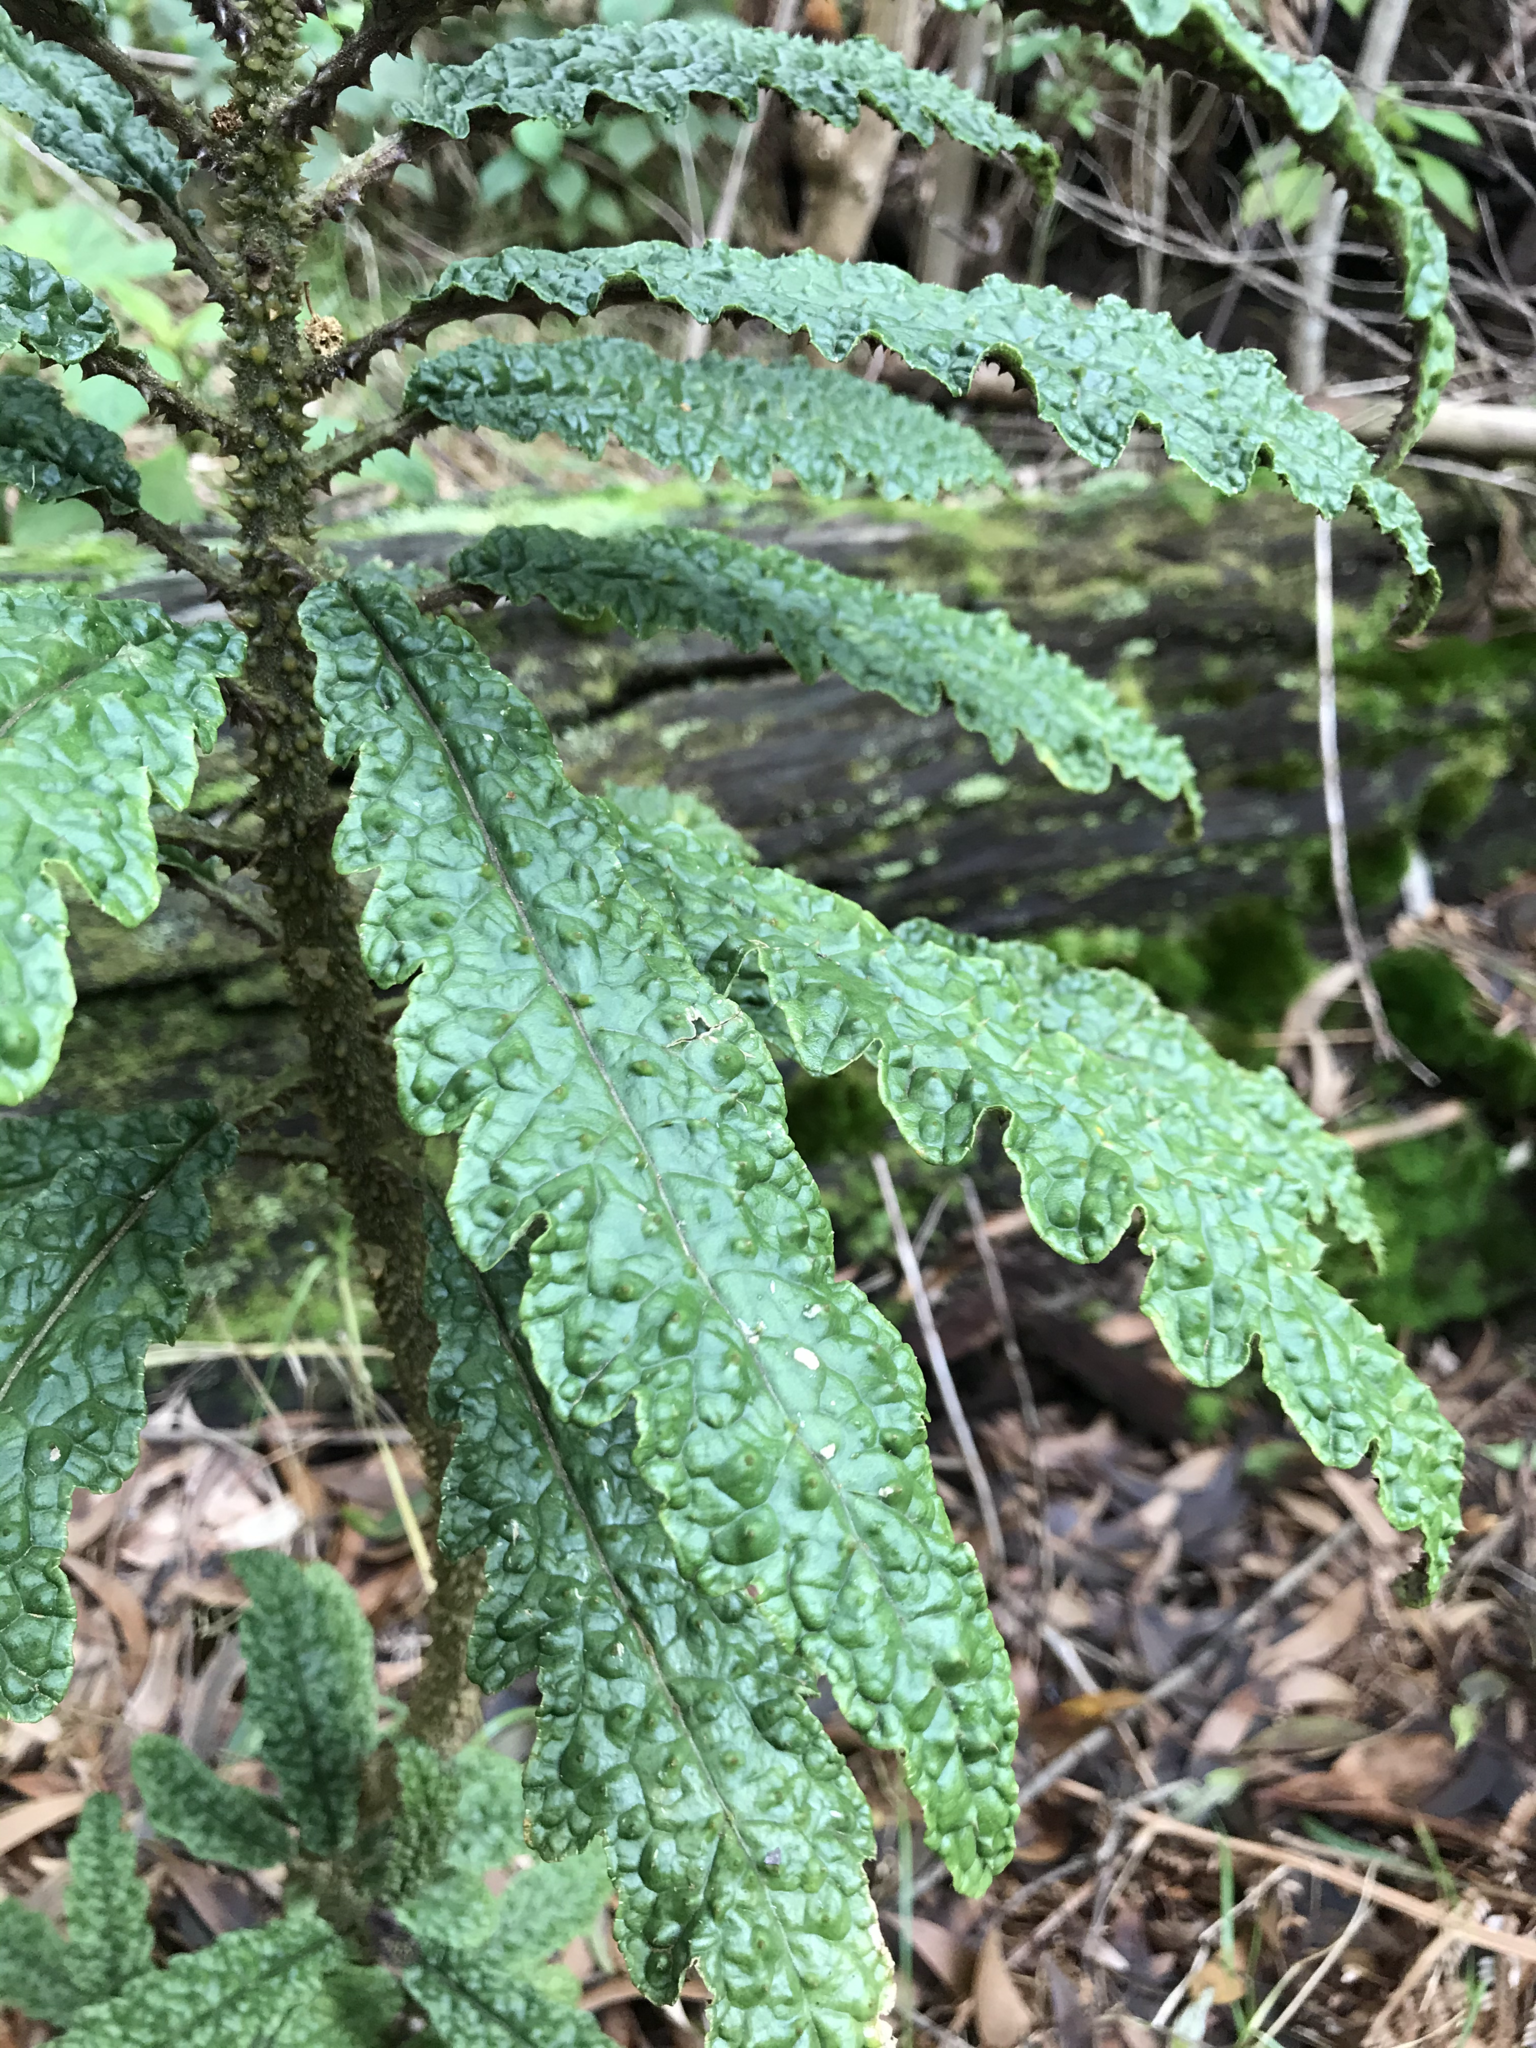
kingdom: Plantae
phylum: Tracheophyta
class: Magnoliopsida
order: Asterales
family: Campanulaceae
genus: Cyanea
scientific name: Cyanea stictophylla
